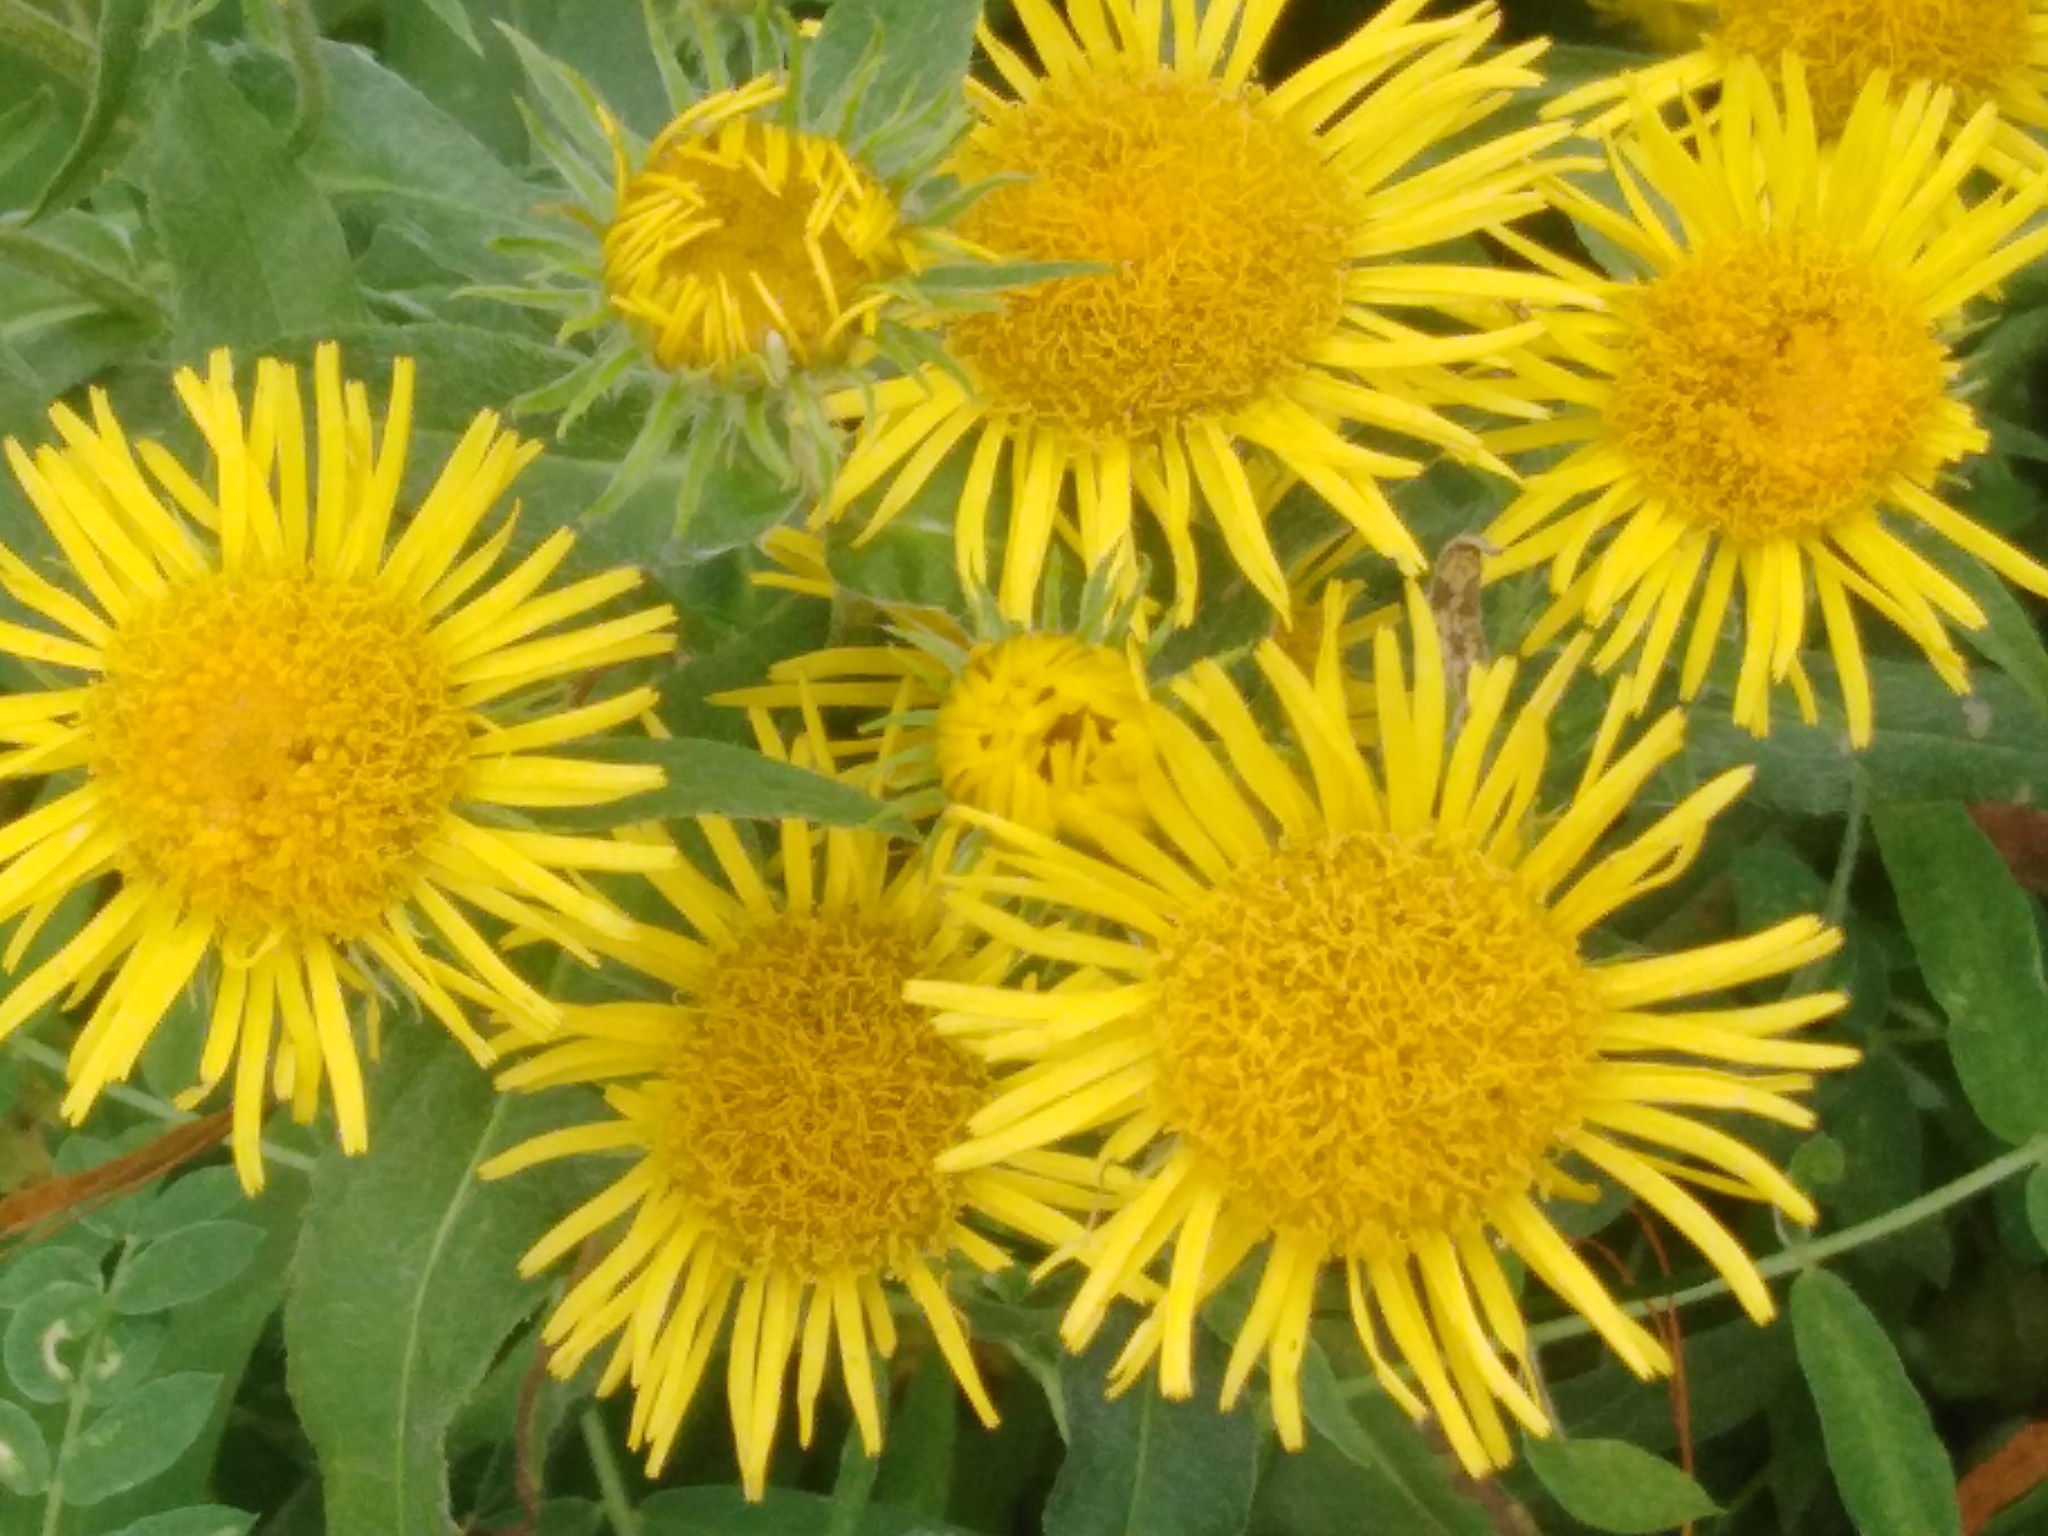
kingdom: Plantae
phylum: Tracheophyta
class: Magnoliopsida
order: Asterales
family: Asteraceae
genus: Pentanema
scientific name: Pentanema britannicum
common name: British elecampane
